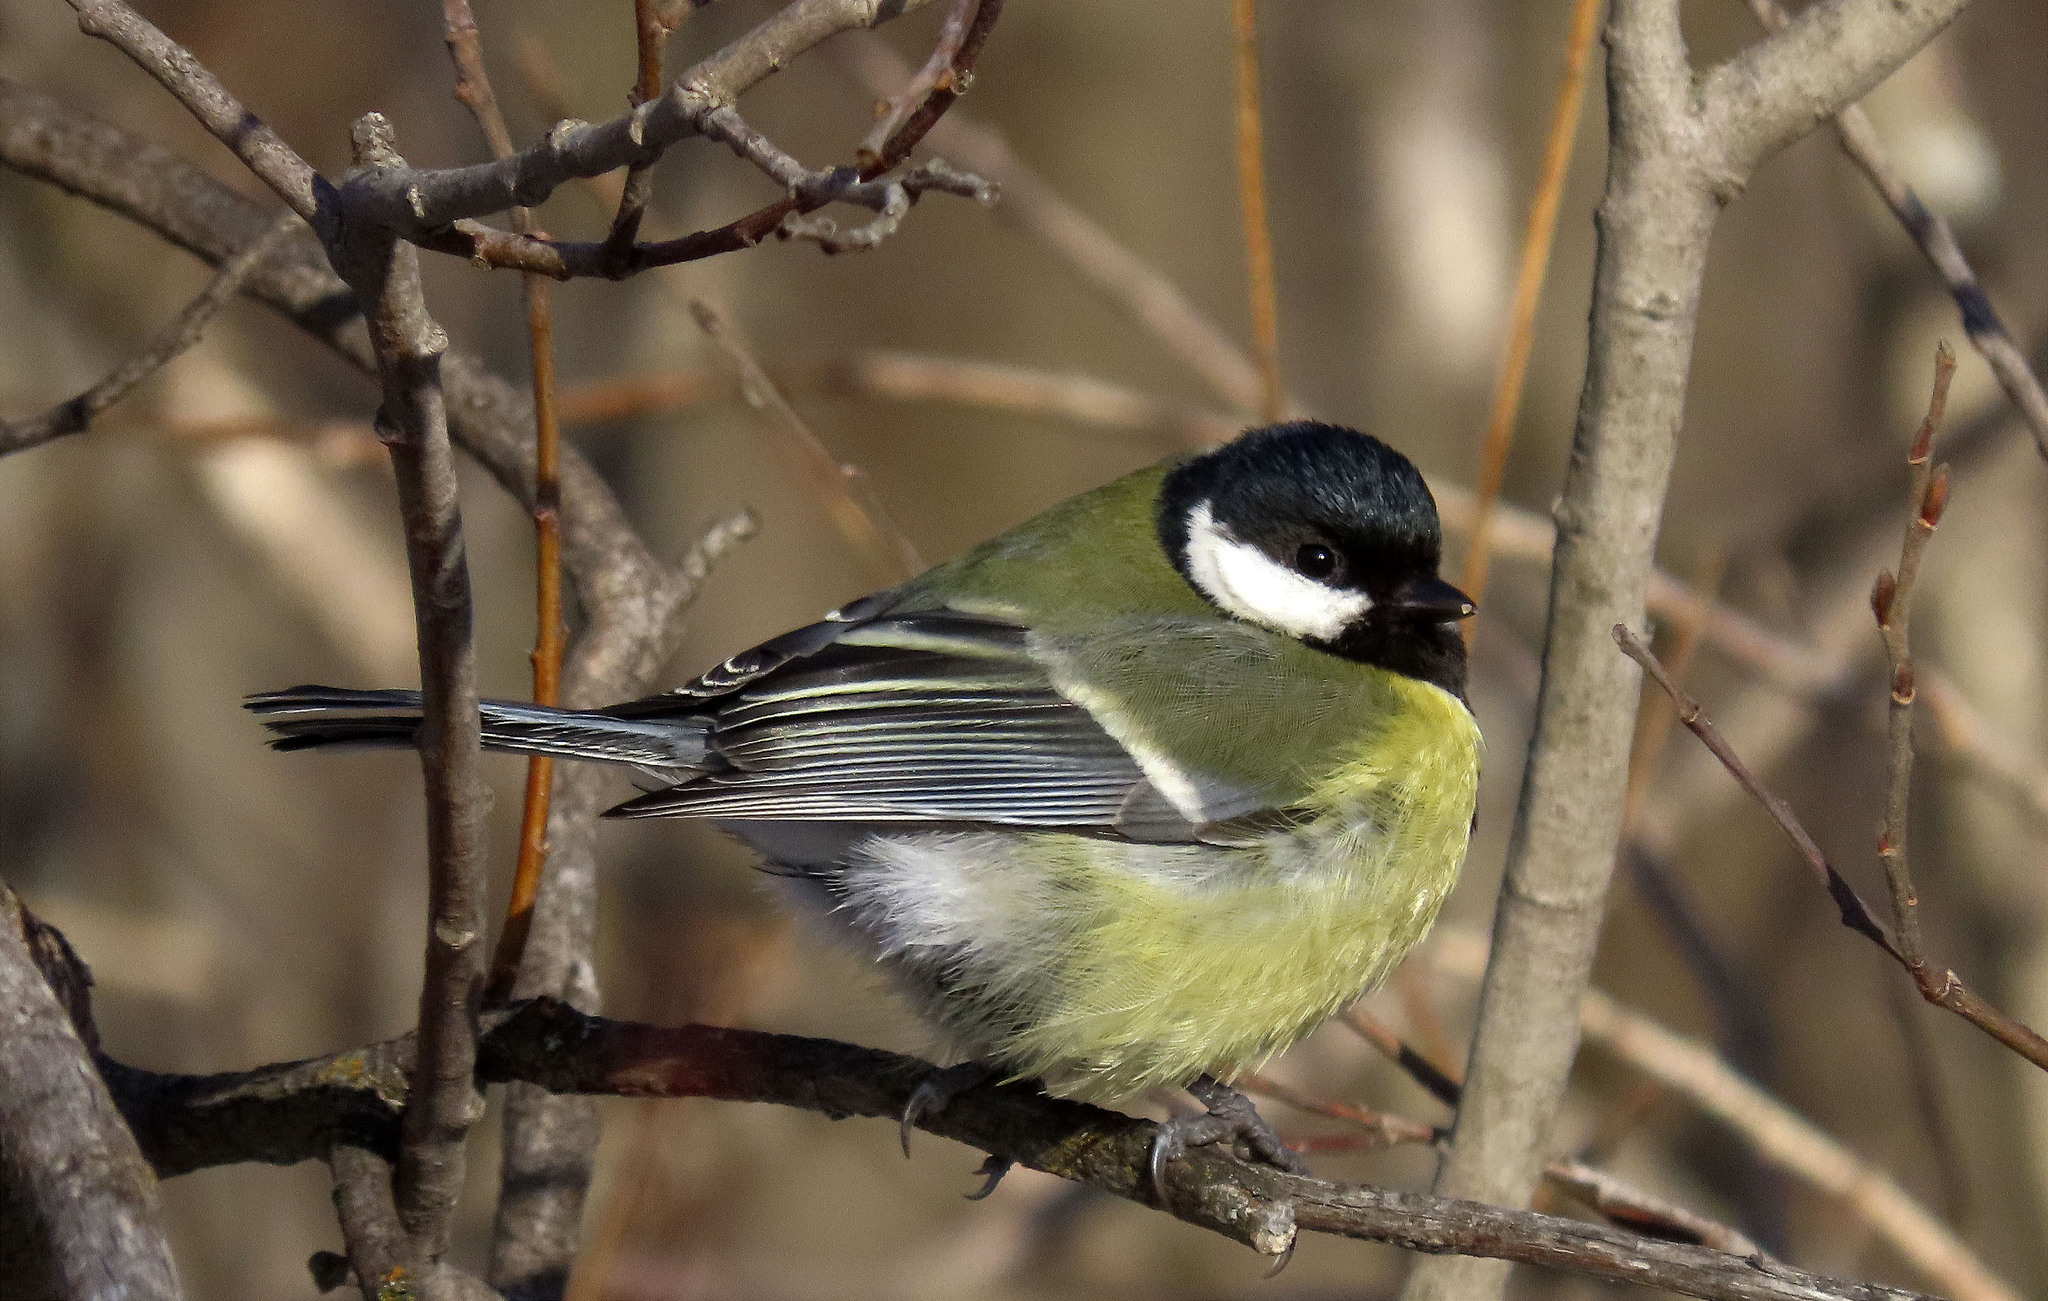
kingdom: Animalia
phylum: Chordata
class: Aves
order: Passeriformes
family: Paridae
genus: Parus
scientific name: Parus major
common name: Great tit
